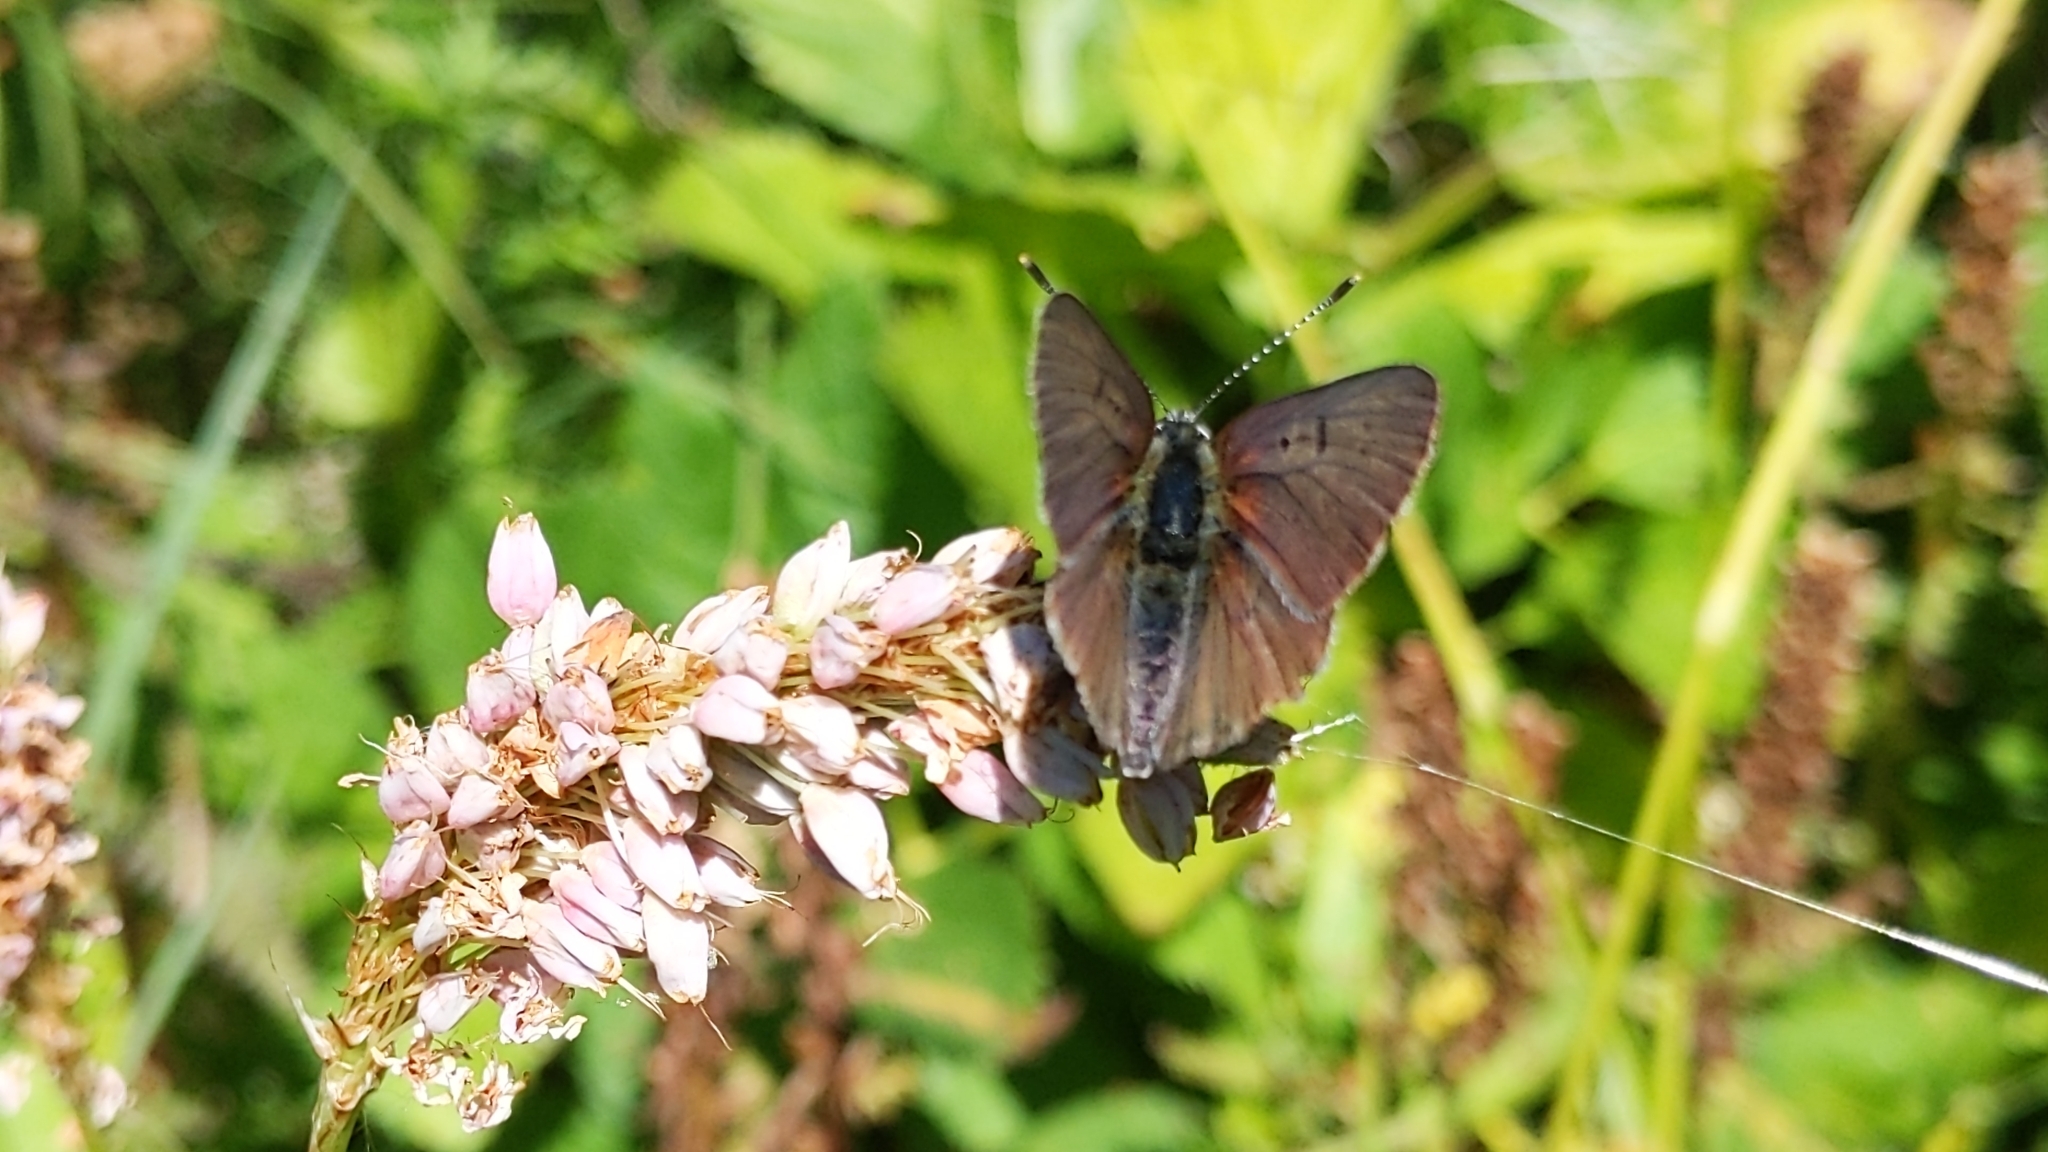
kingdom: Animalia
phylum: Arthropoda
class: Insecta
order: Lepidoptera
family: Lycaenidae
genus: Loweia
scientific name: Loweia tityrus
